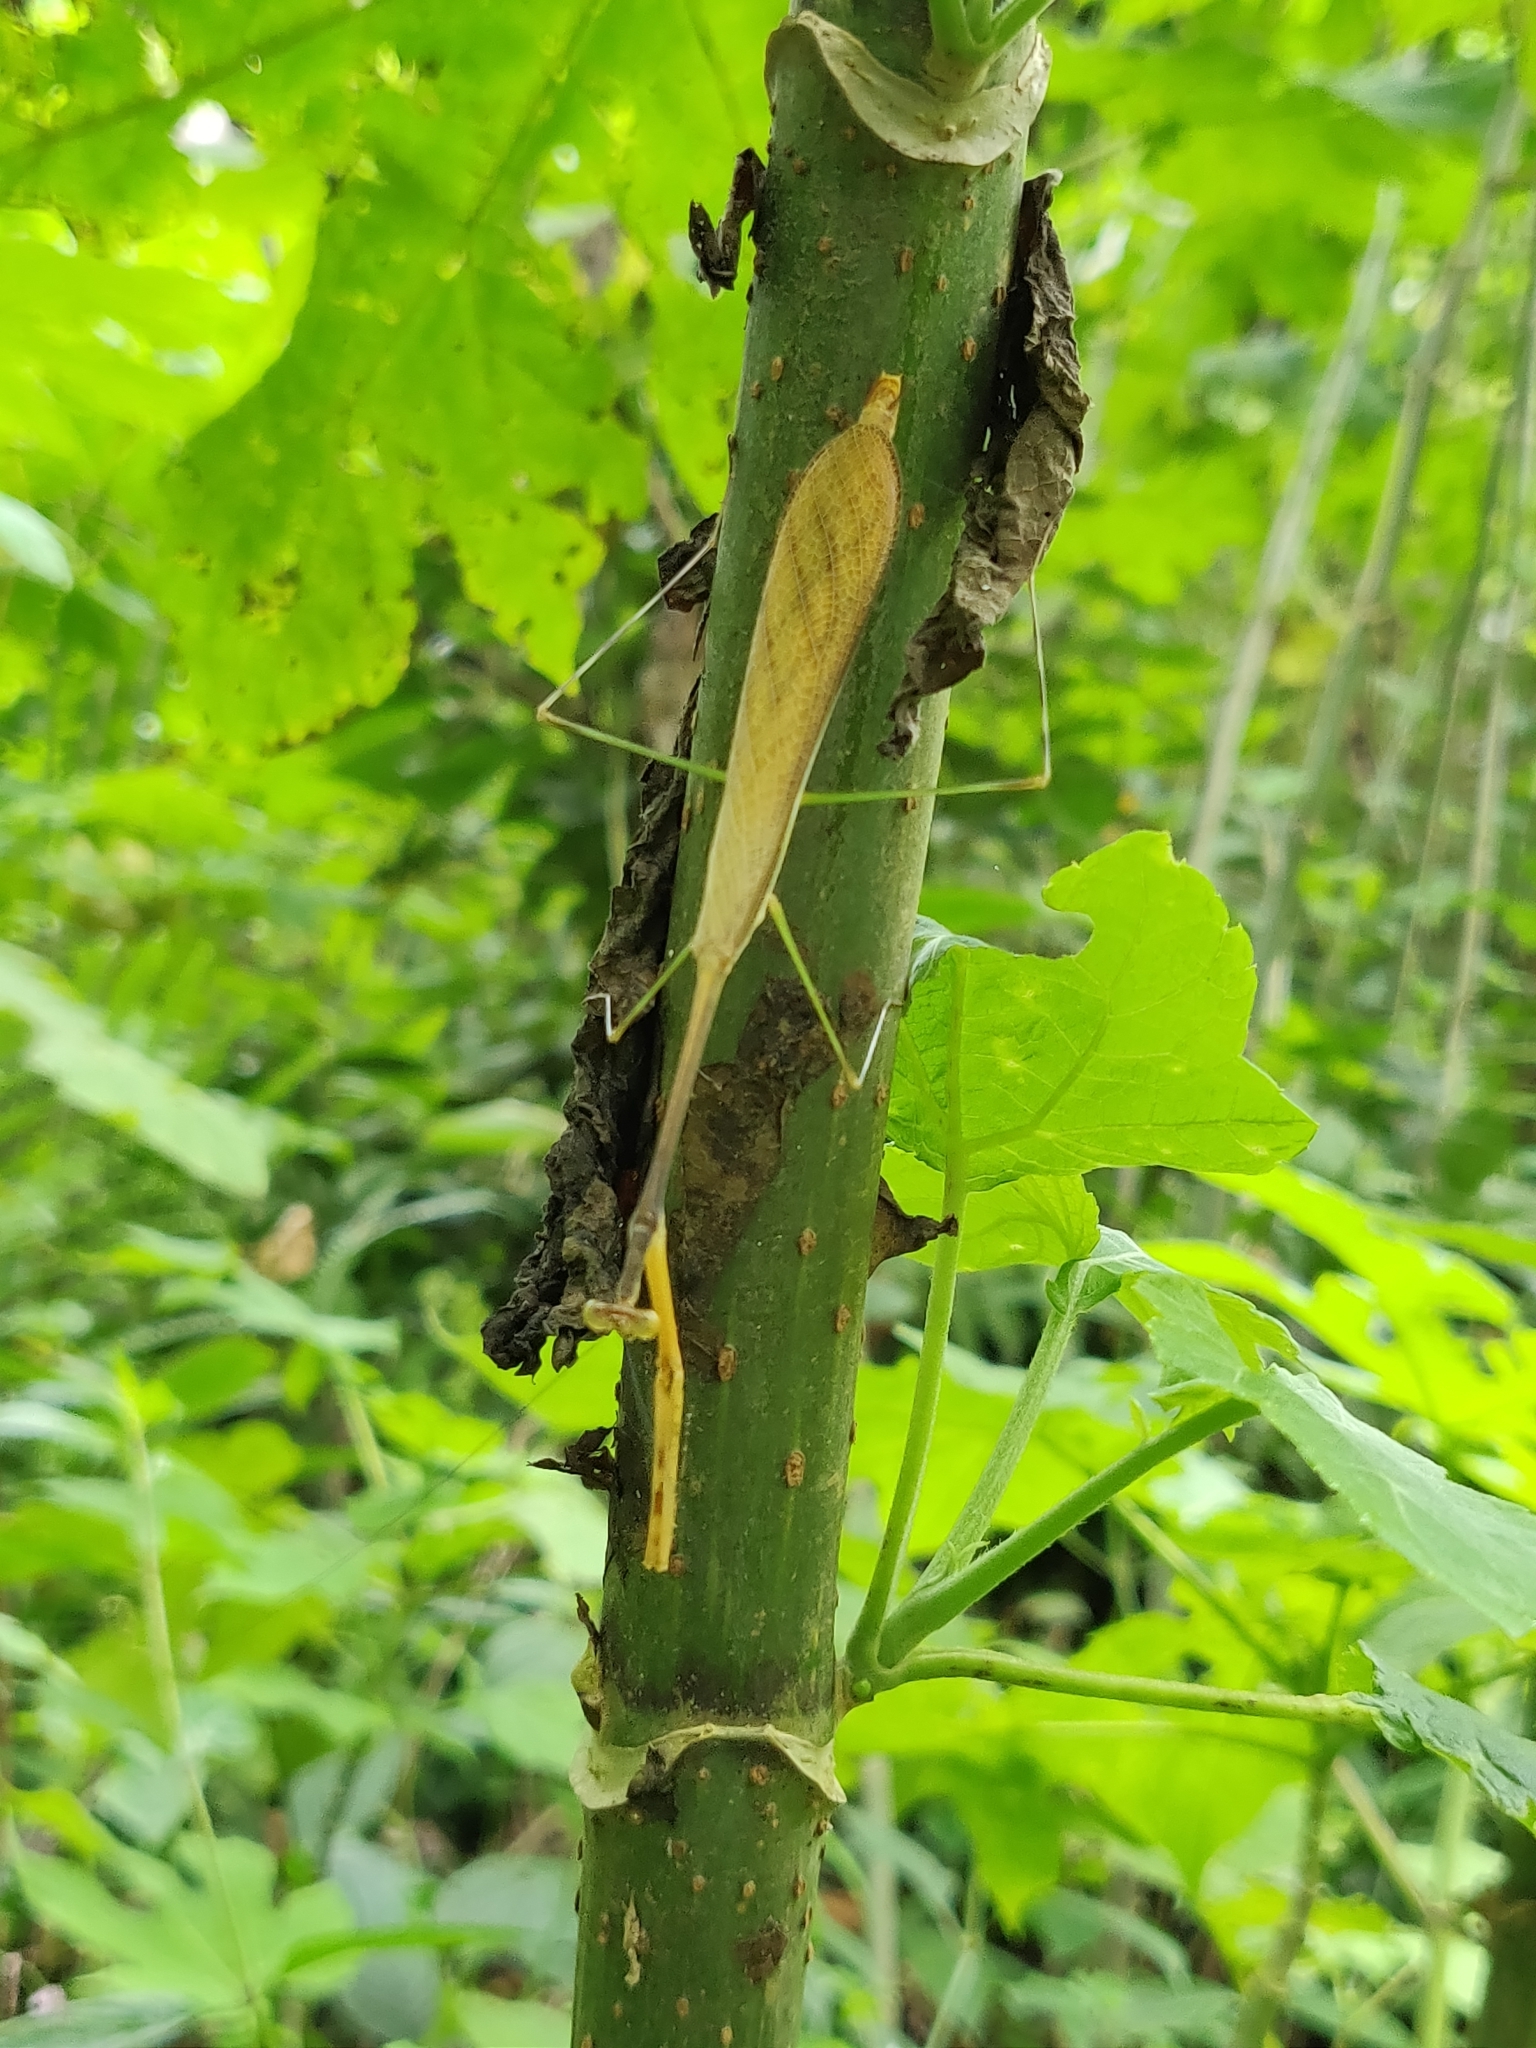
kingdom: Animalia
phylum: Arthropoda
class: Insecta
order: Mantodea
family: Deroplatyidae
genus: Indomenella
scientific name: Indomenella indica
